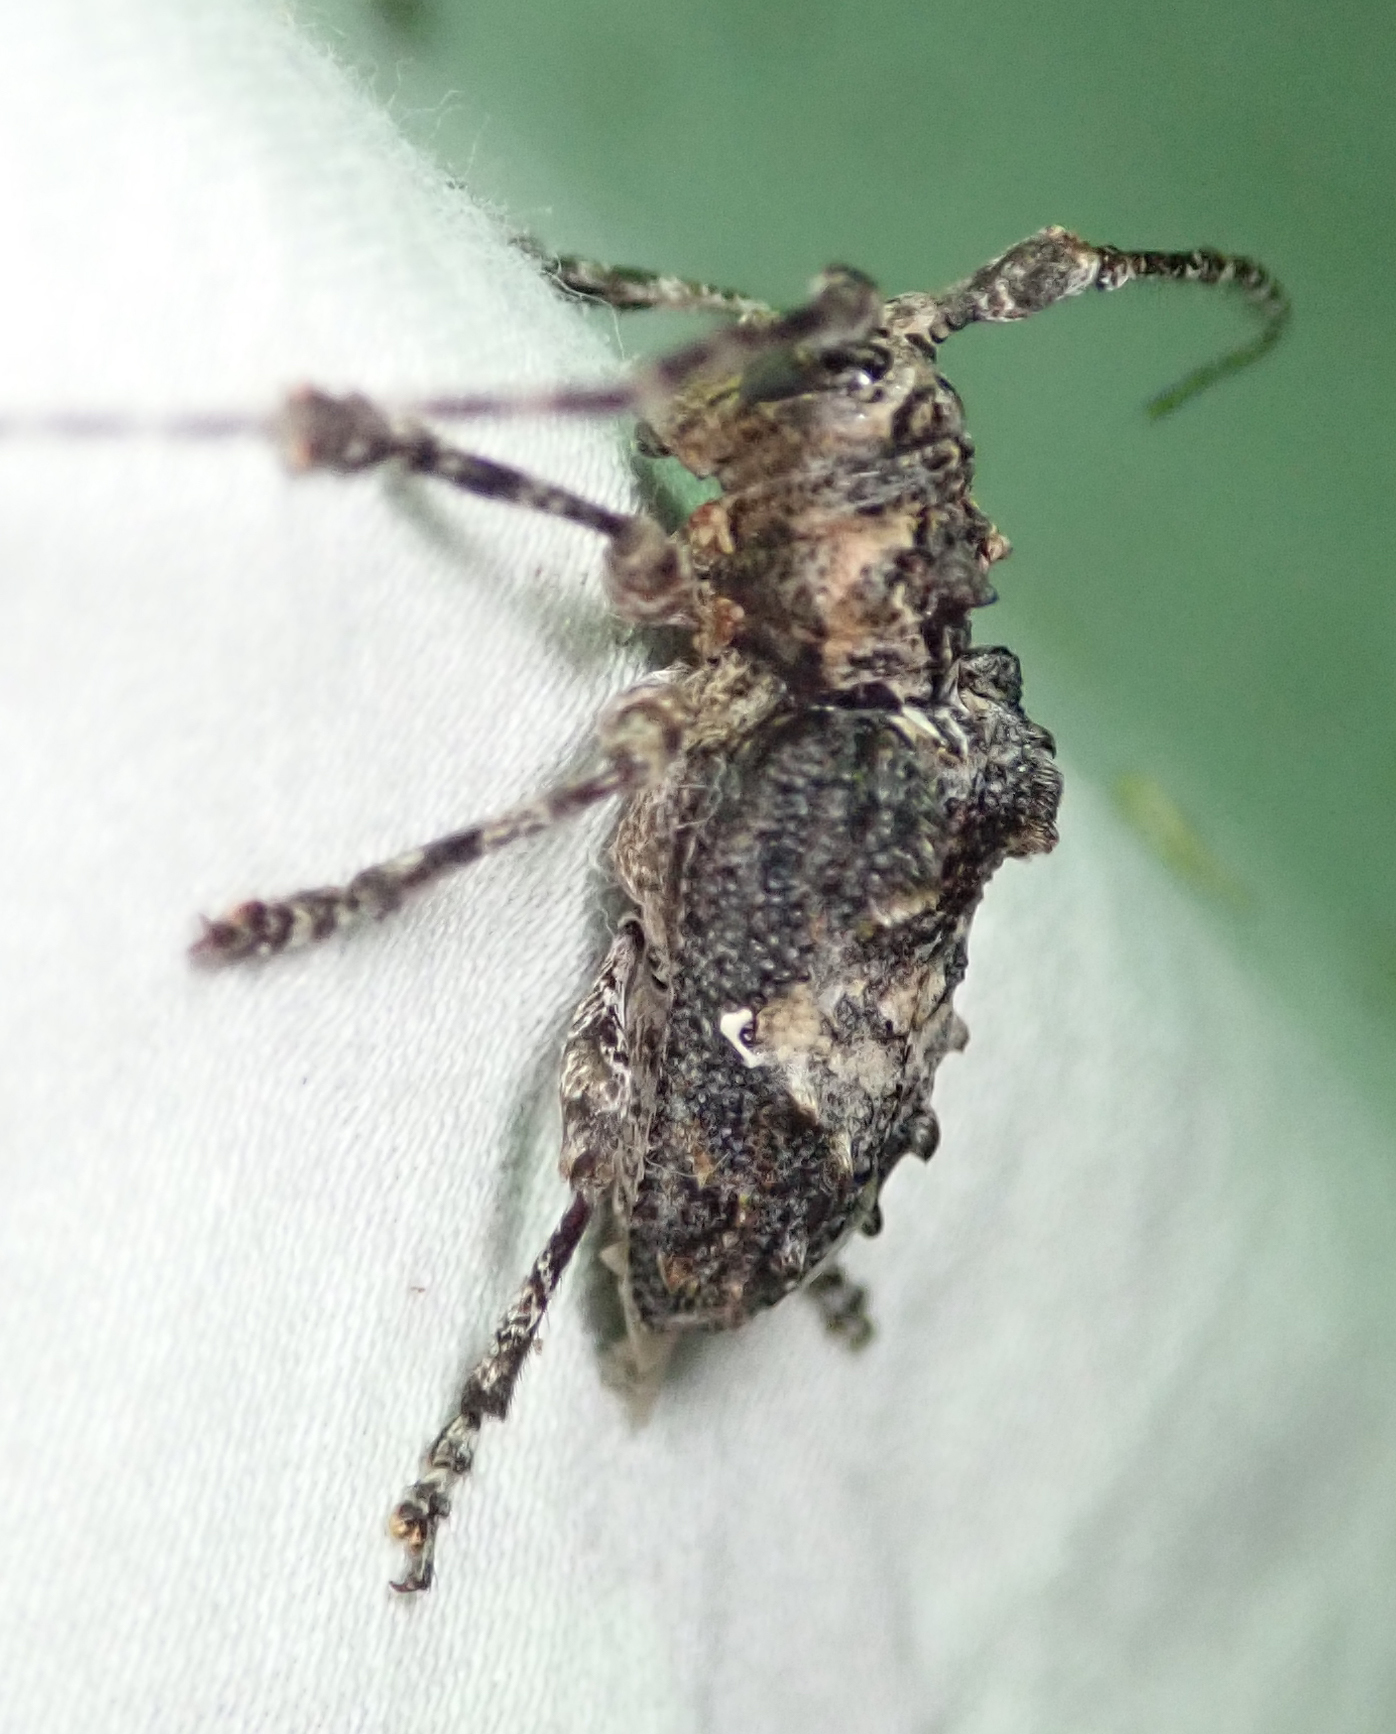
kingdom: Animalia
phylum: Arthropoda
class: Insecta
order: Coleoptera
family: Cerambycidae
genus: Idactus
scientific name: Idactus ellioti
